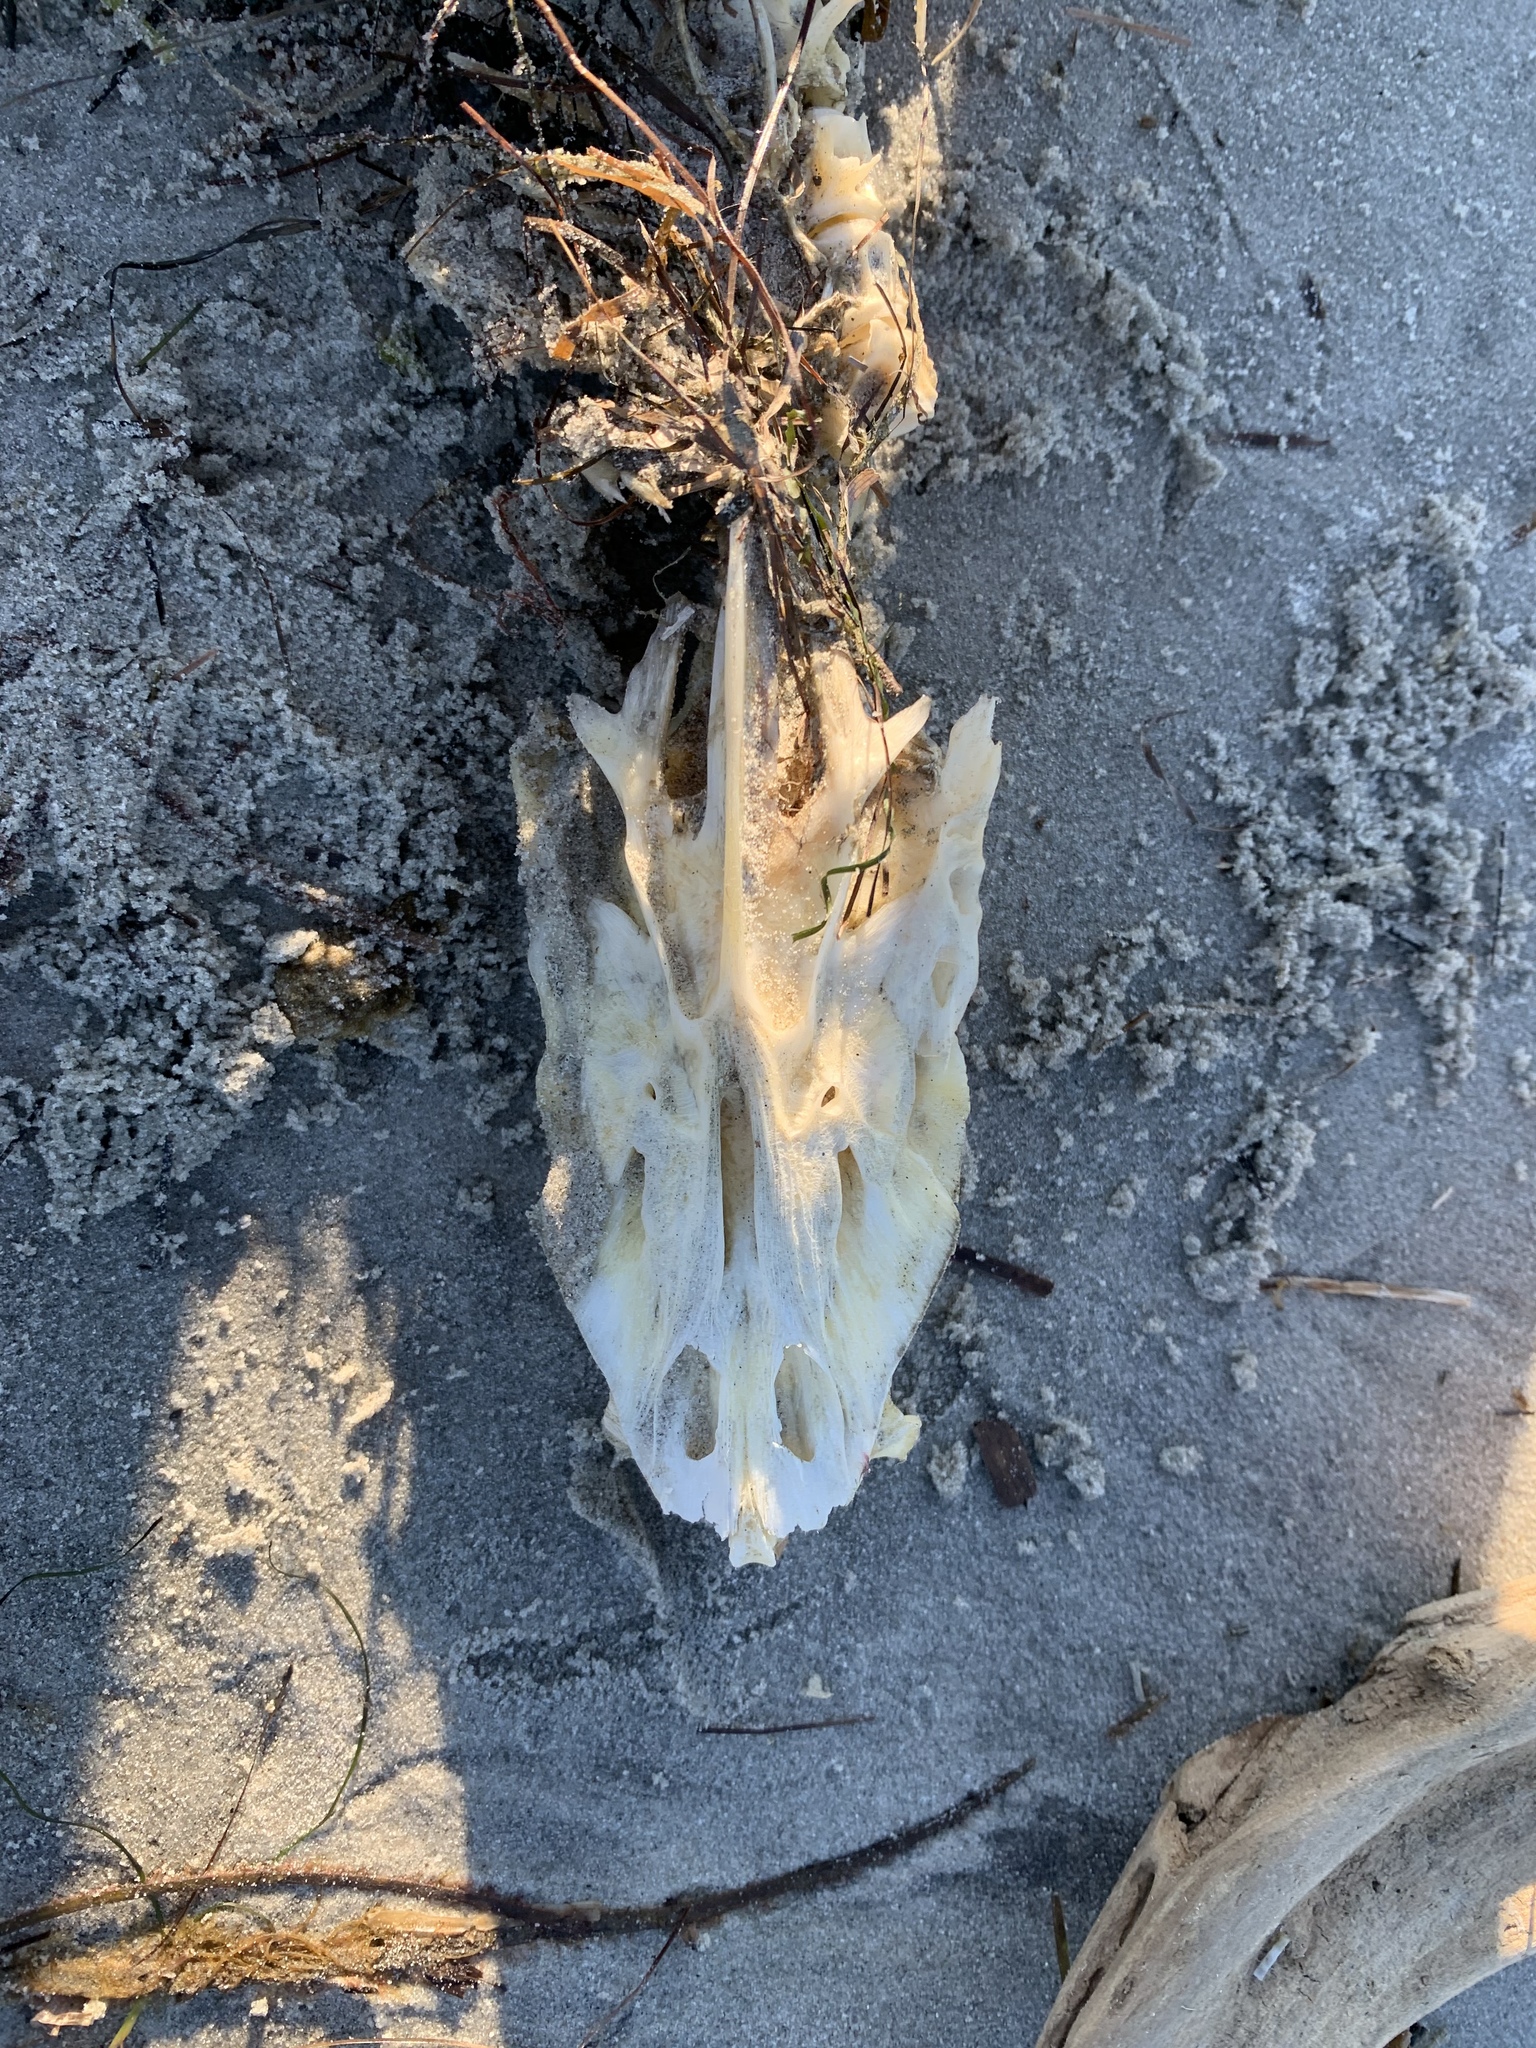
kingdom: Animalia
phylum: Chordata
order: Perciformes
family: Sciaenidae
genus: Sciaenops
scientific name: Sciaenops ocellatus
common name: Red drum
